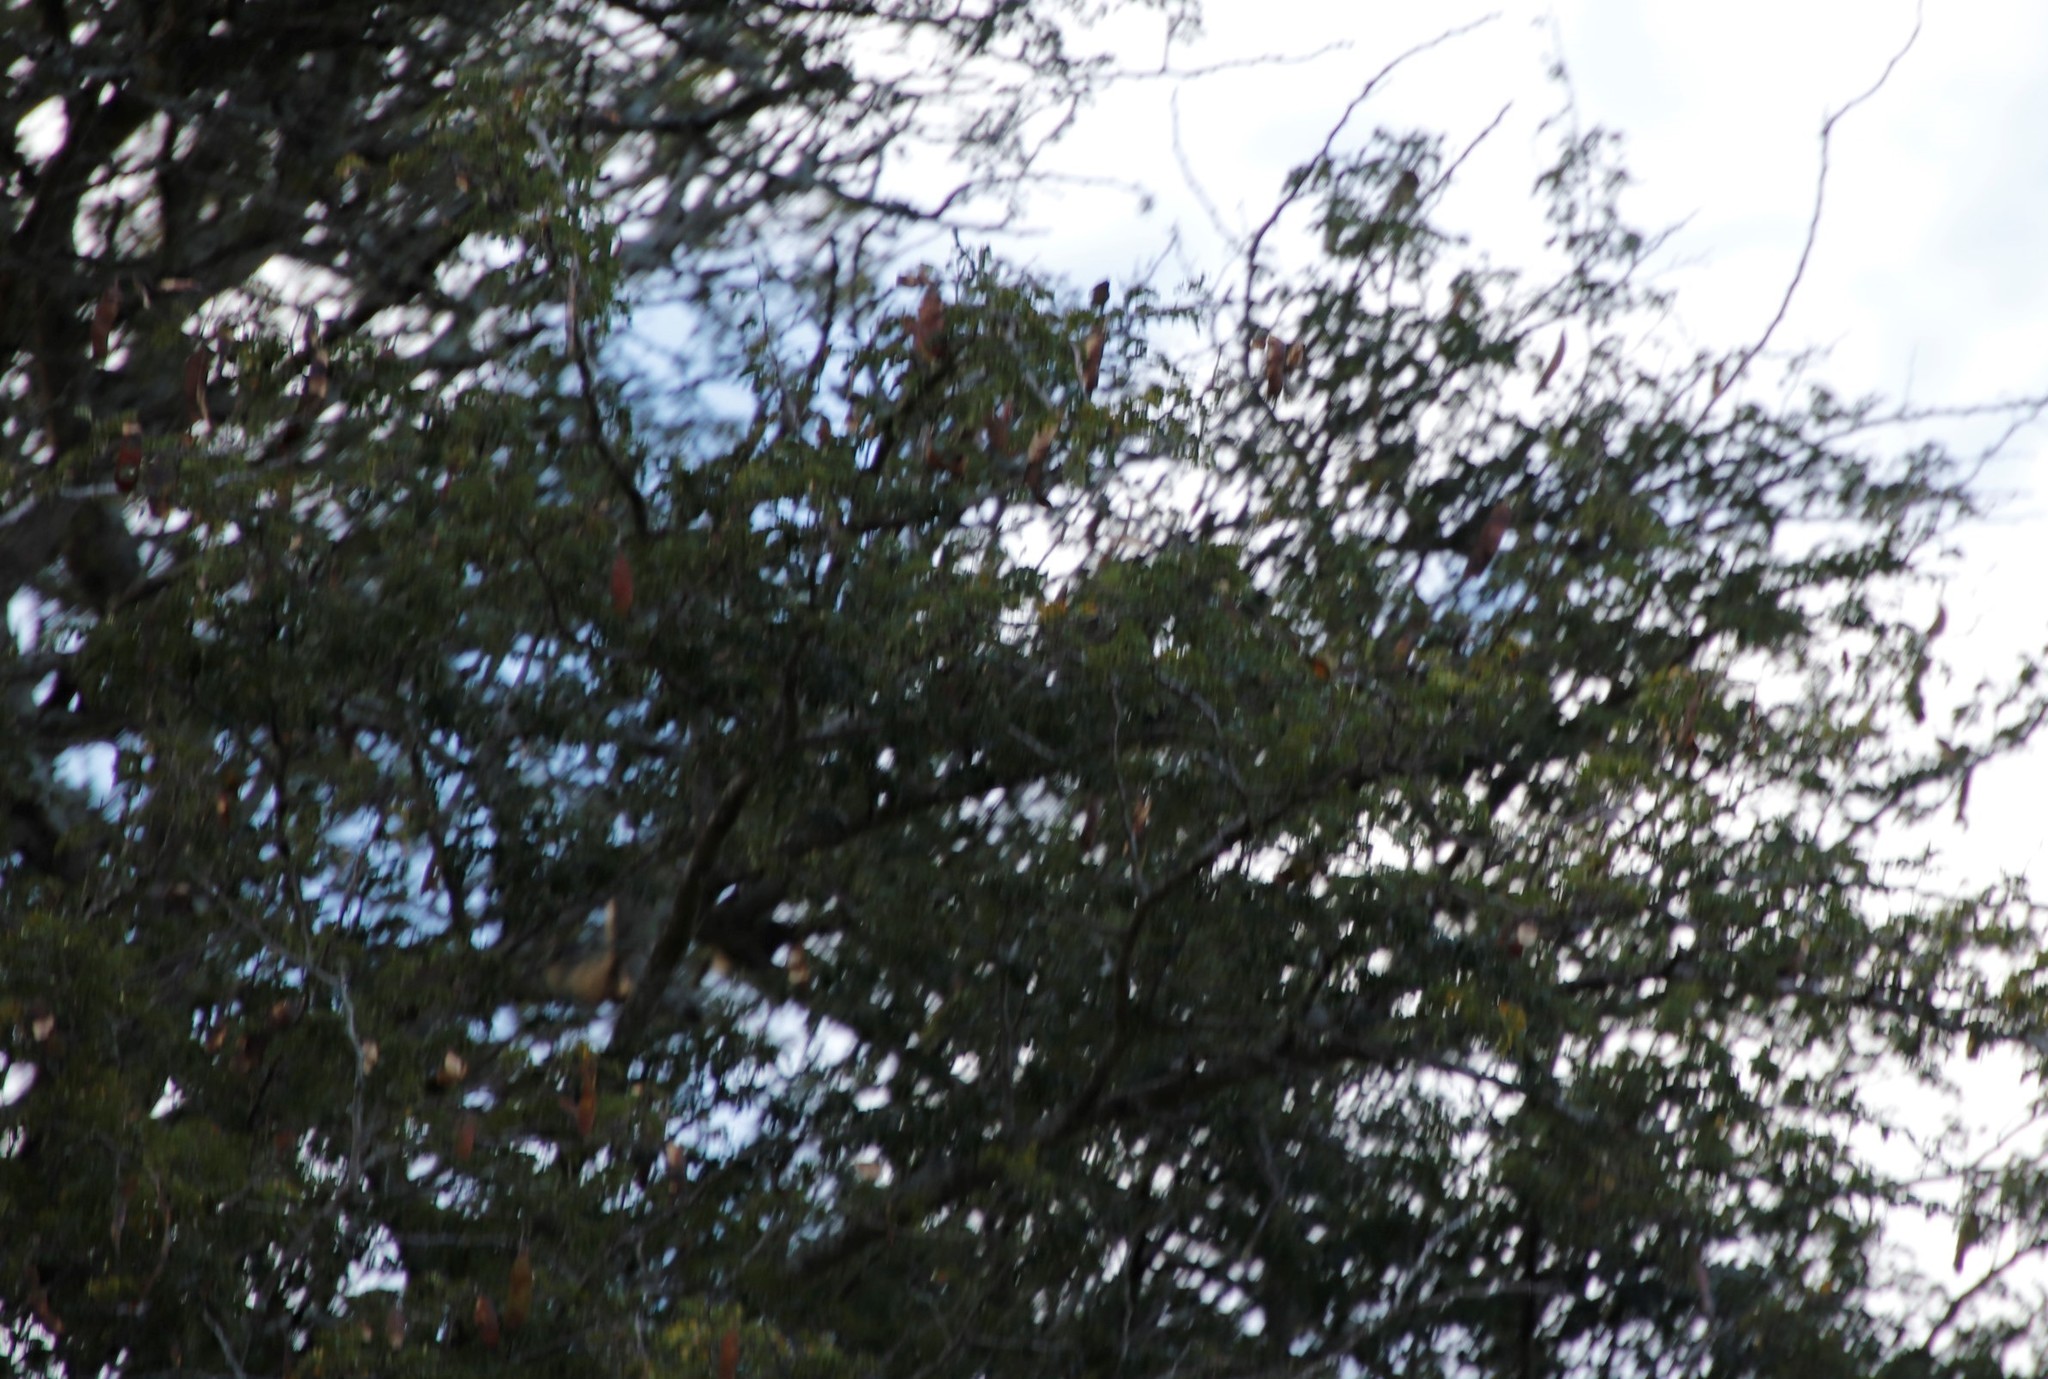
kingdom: Plantae
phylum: Tracheophyta
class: Magnoliopsida
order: Fabales
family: Fabaceae
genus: Senegalia
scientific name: Senegalia nigrescens
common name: Knobthorn
